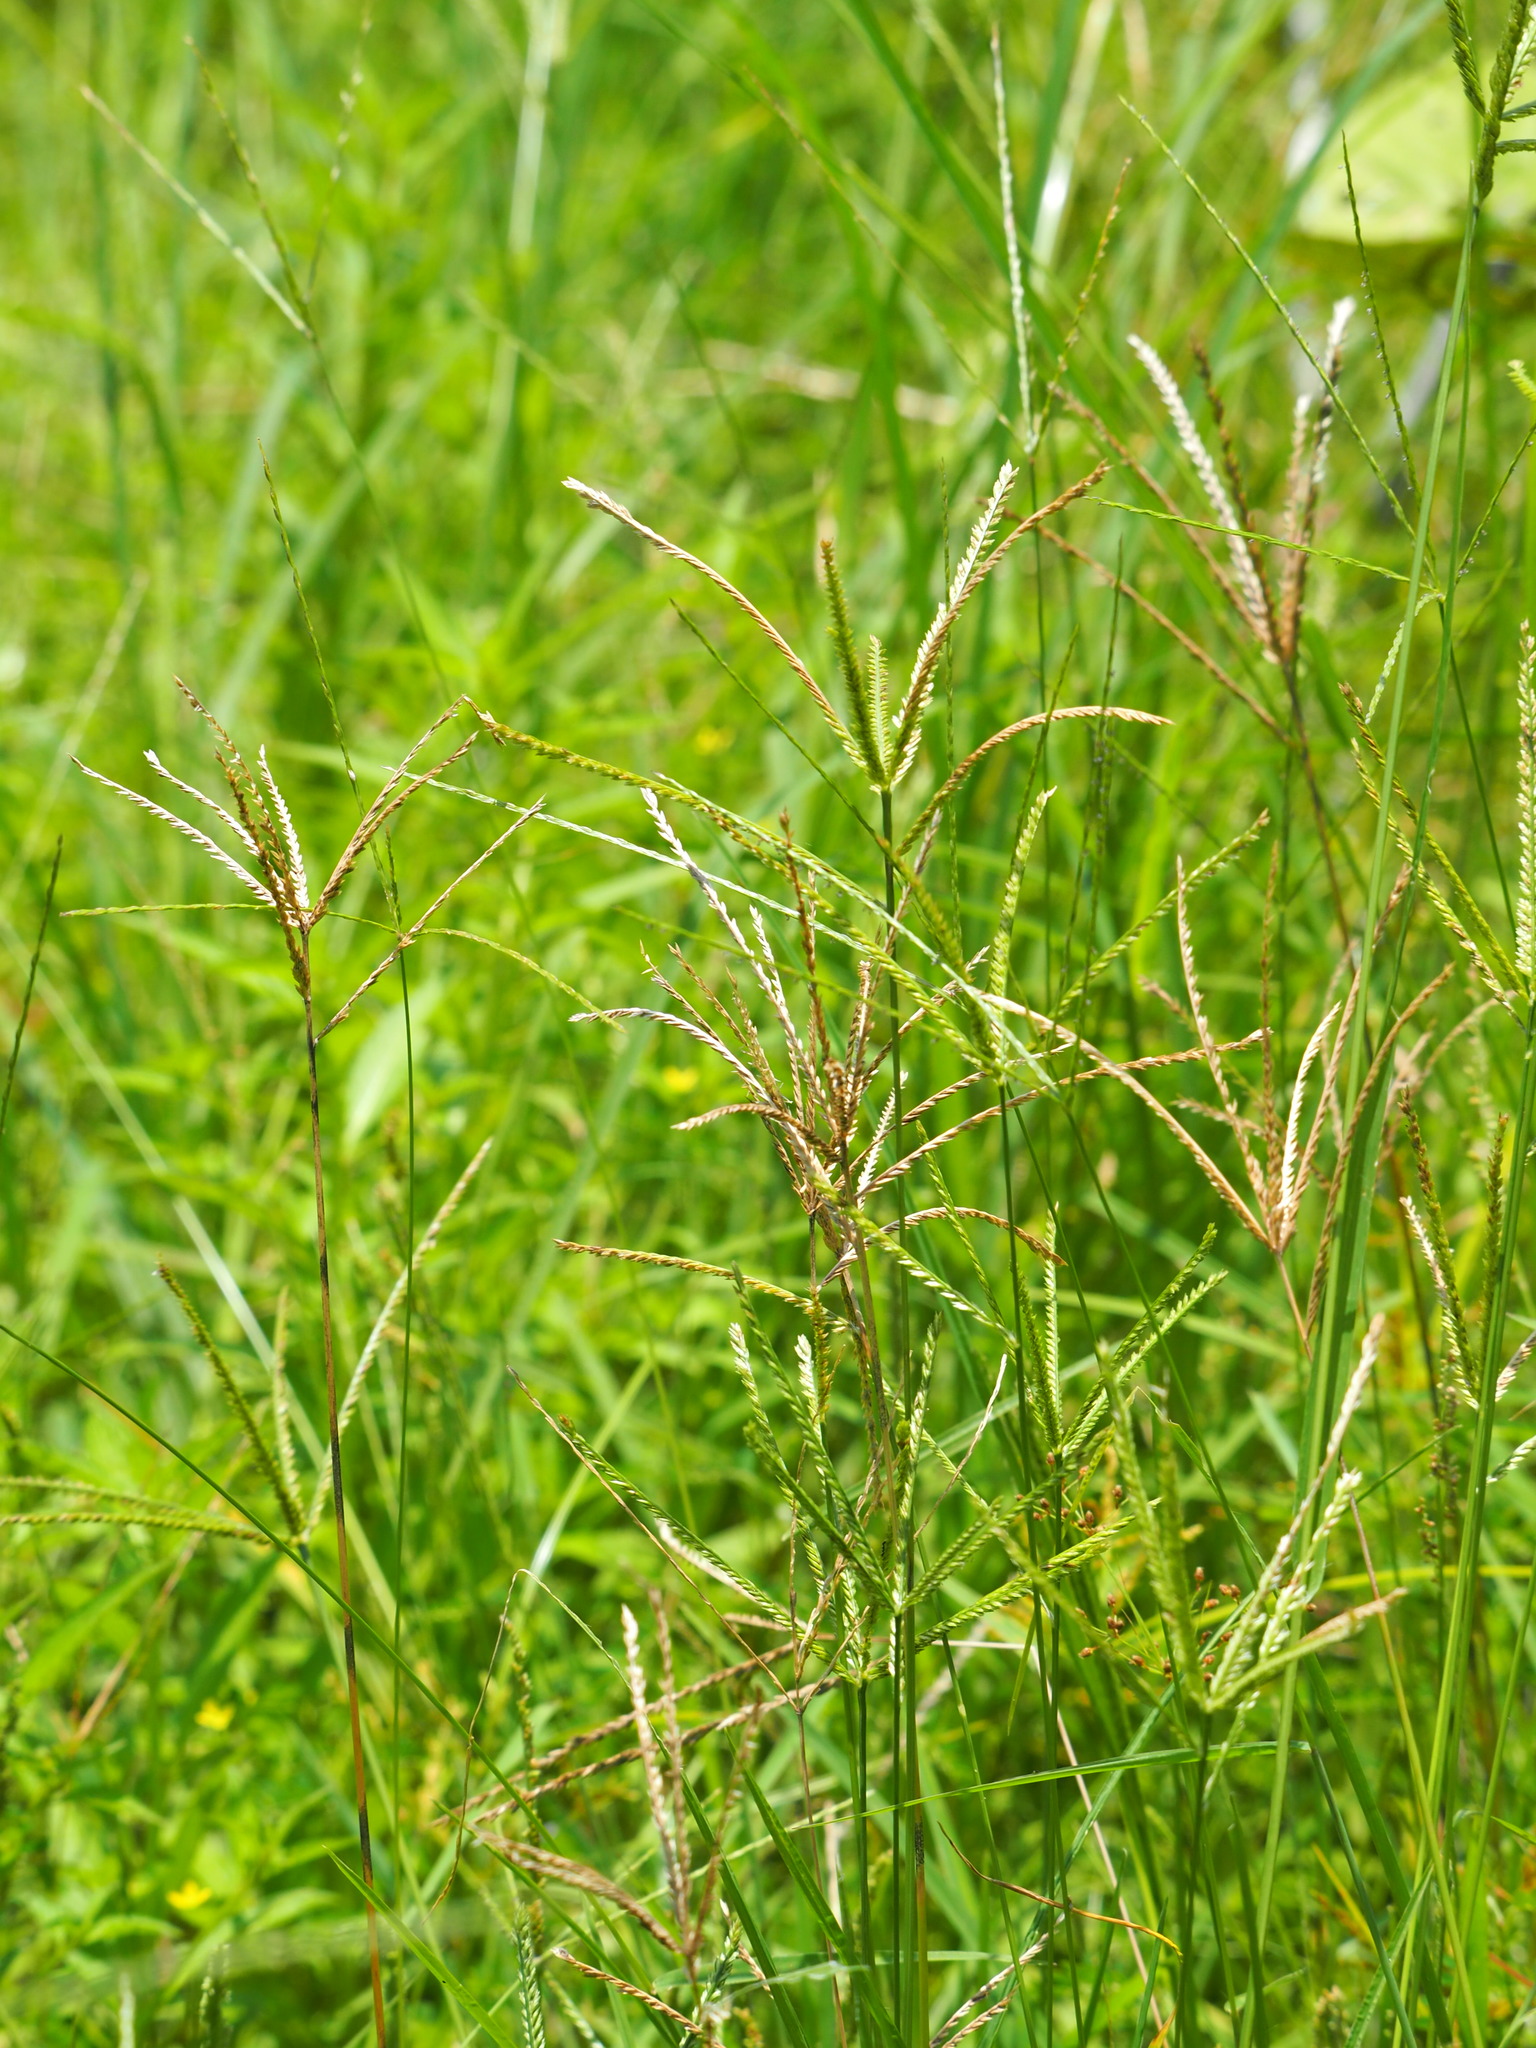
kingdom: Plantae
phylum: Tracheophyta
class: Liliopsida
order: Poales
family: Poaceae
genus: Eleusine
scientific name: Eleusine indica
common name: Yard-grass
